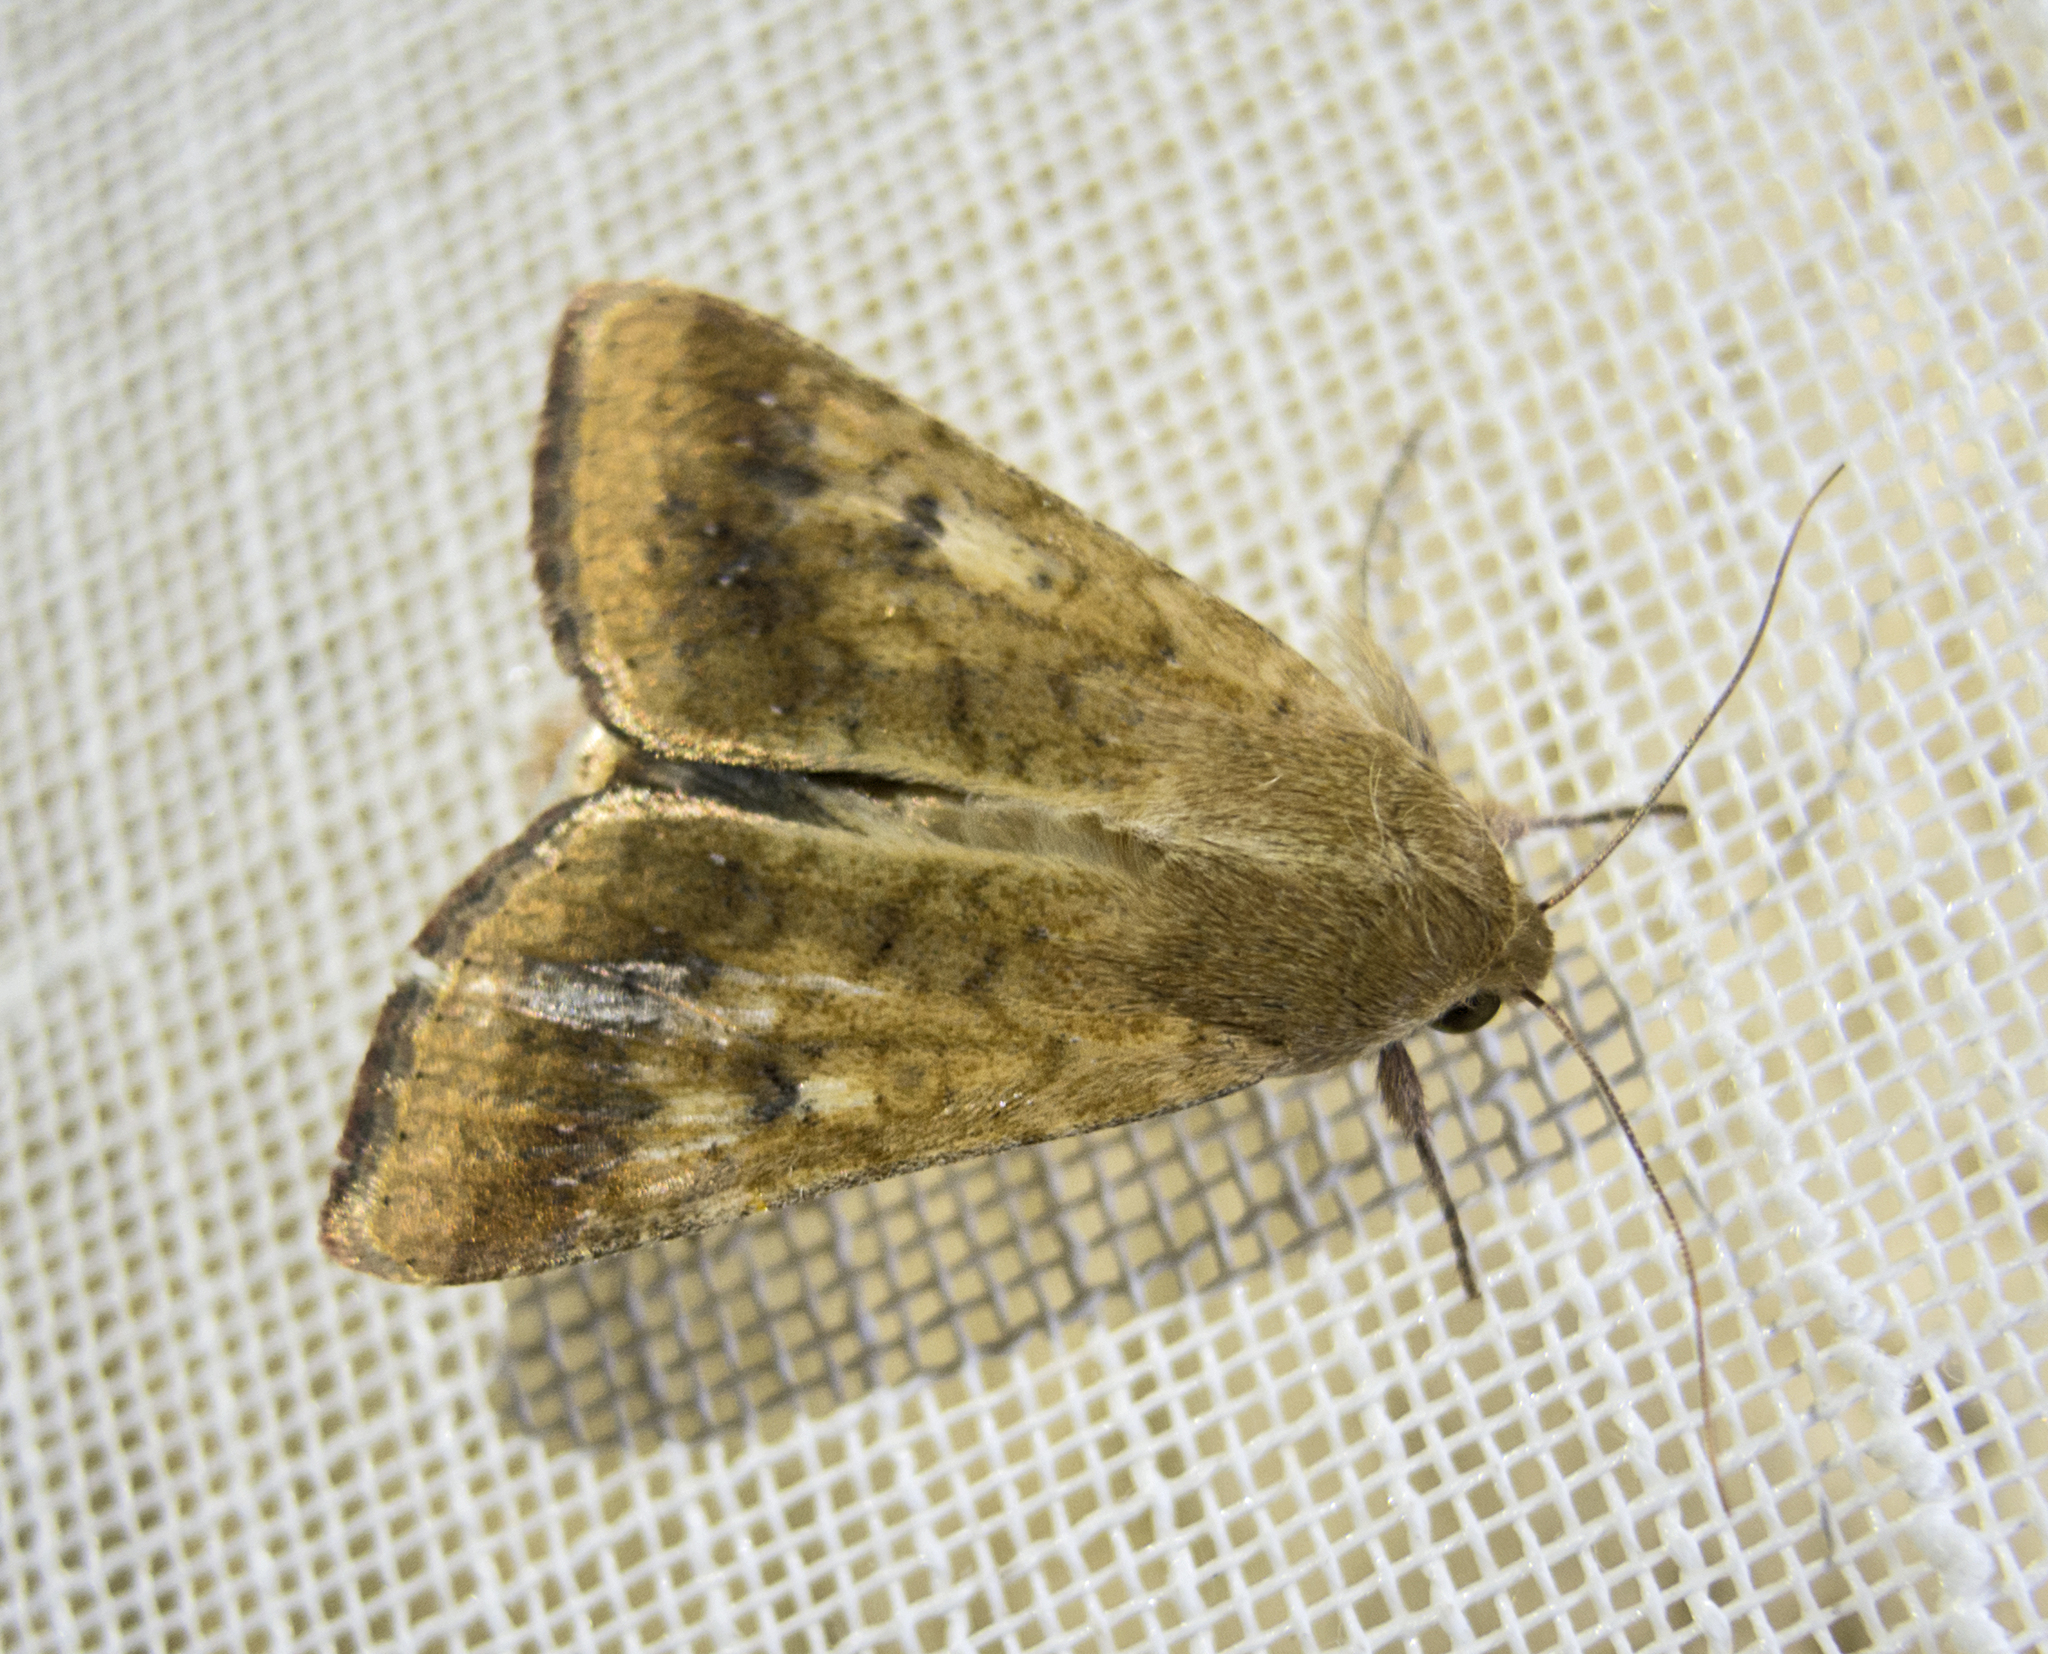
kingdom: Animalia
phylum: Arthropoda
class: Insecta
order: Lepidoptera
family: Noctuidae
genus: Helicoverpa
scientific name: Helicoverpa armigera
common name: Cotton bollworm
